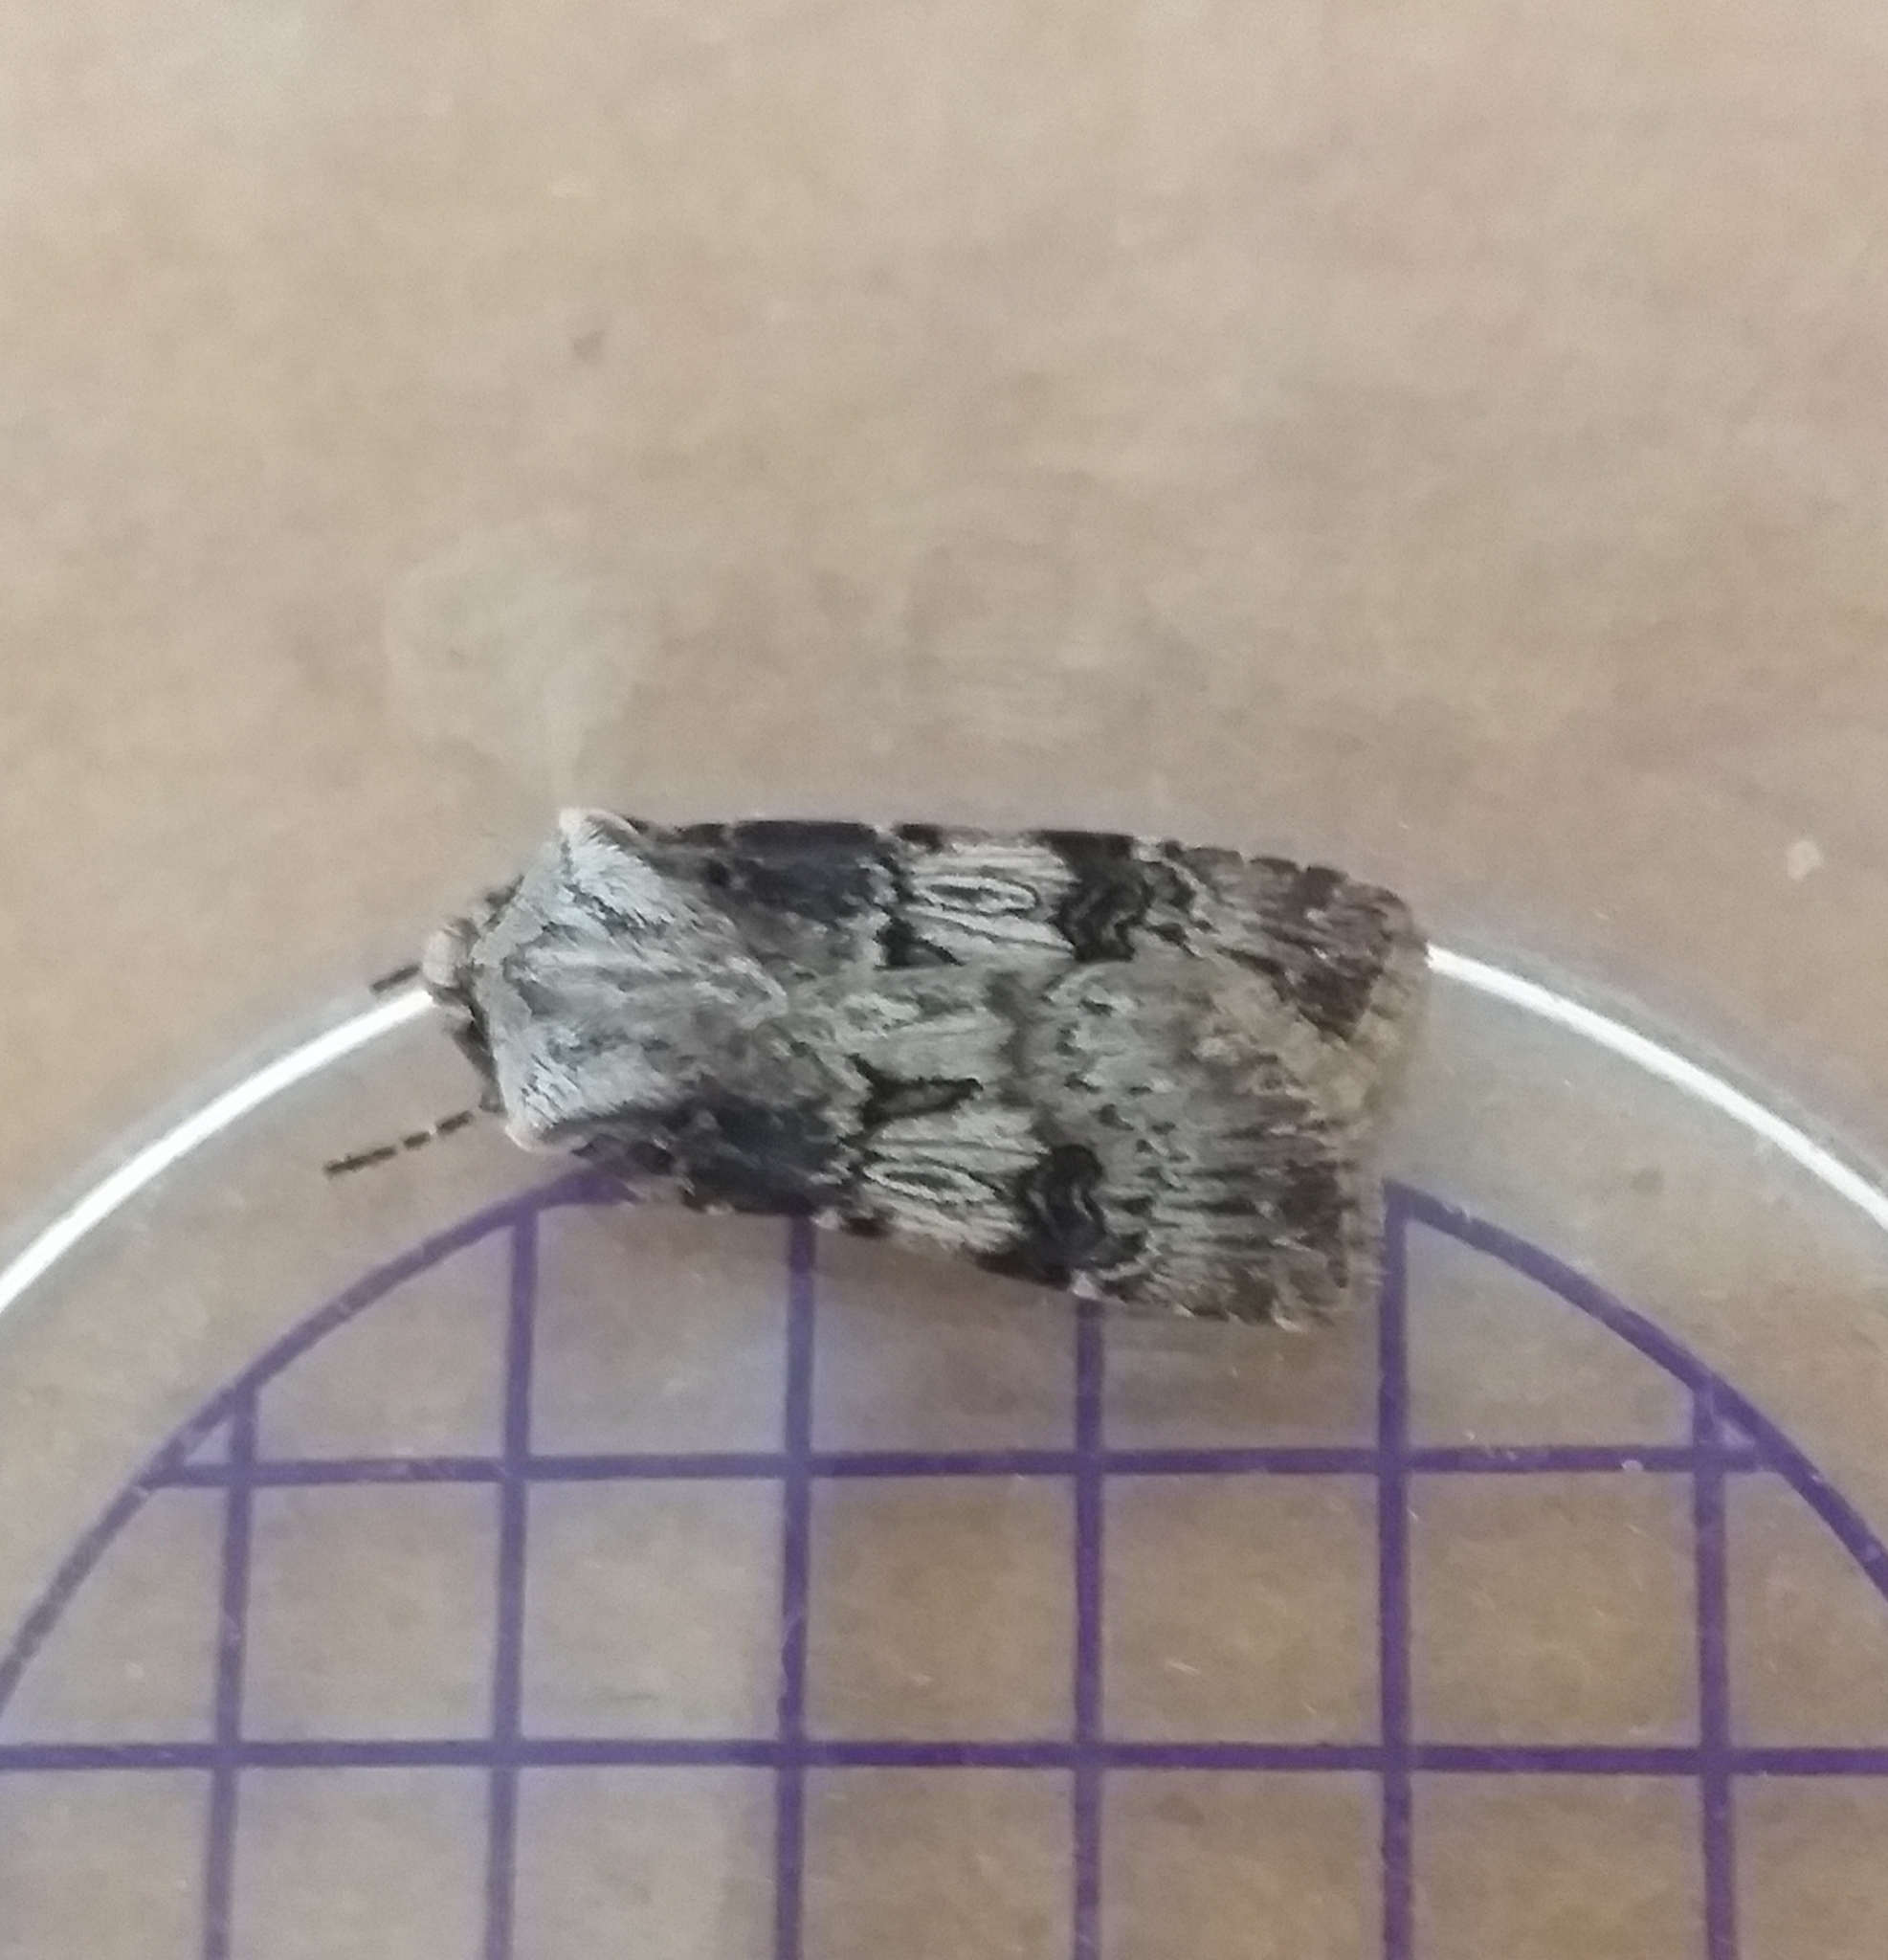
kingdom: Animalia
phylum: Arthropoda
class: Insecta
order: Lepidoptera
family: Noctuidae
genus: Agrotis
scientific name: Agrotis puta
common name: Shuttle-shaped dart
